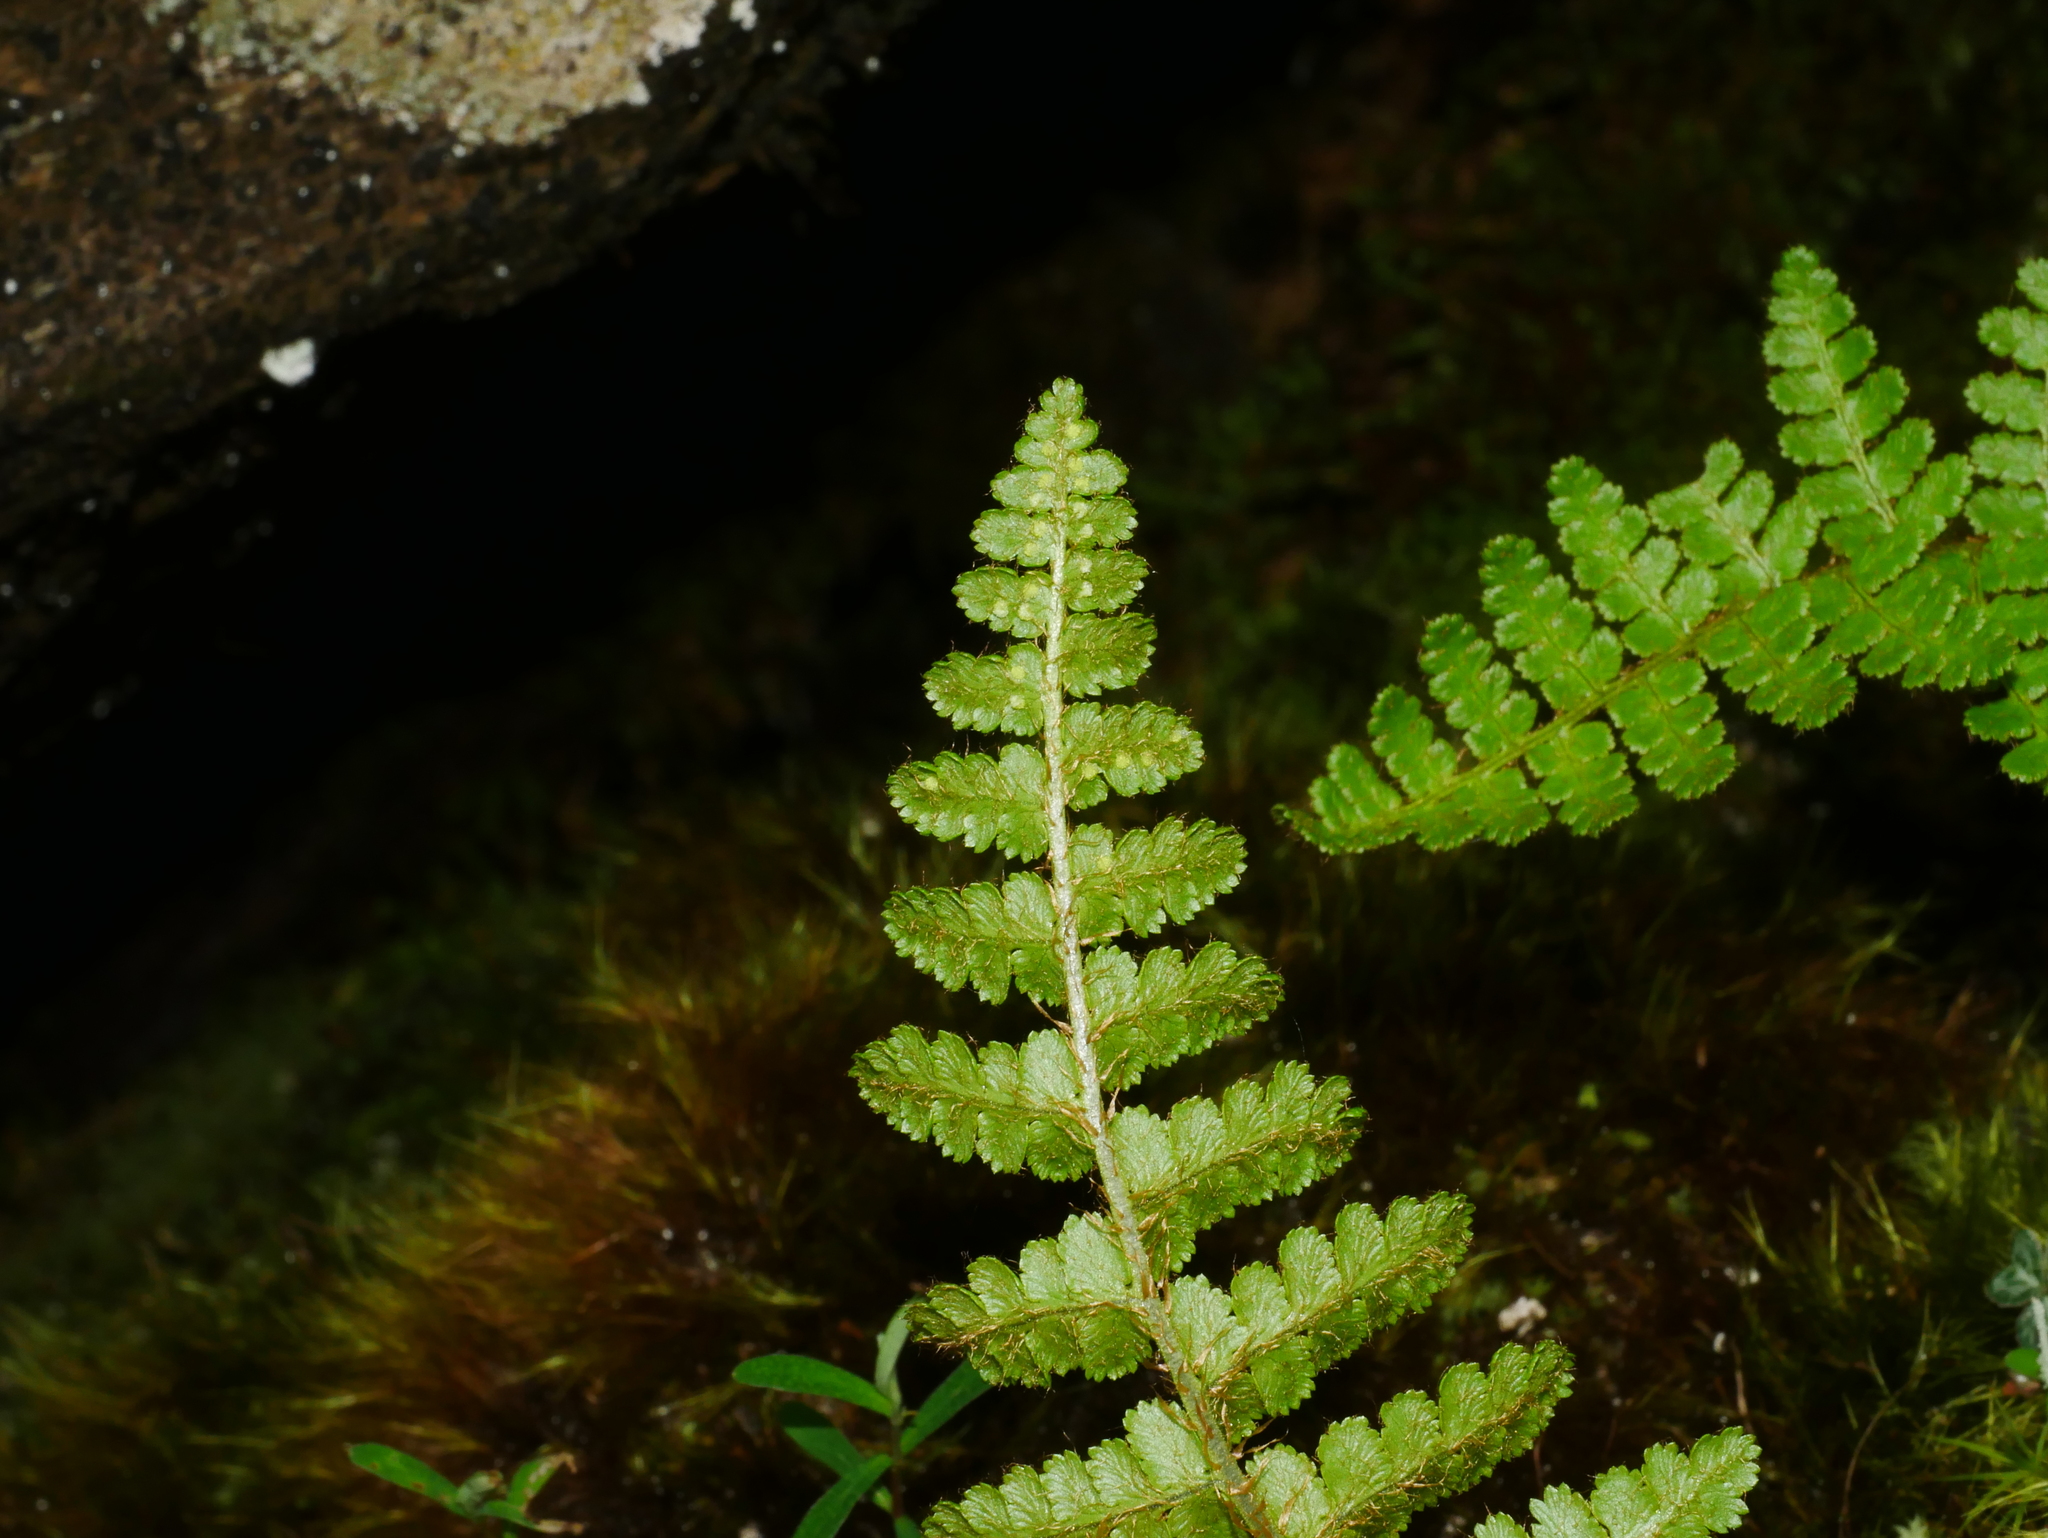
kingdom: Plantae
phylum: Tracheophyta
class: Polypodiopsida
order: Polypodiales
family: Dryopteridaceae
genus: Dryopteris
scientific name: Dryopteris acutodentata
